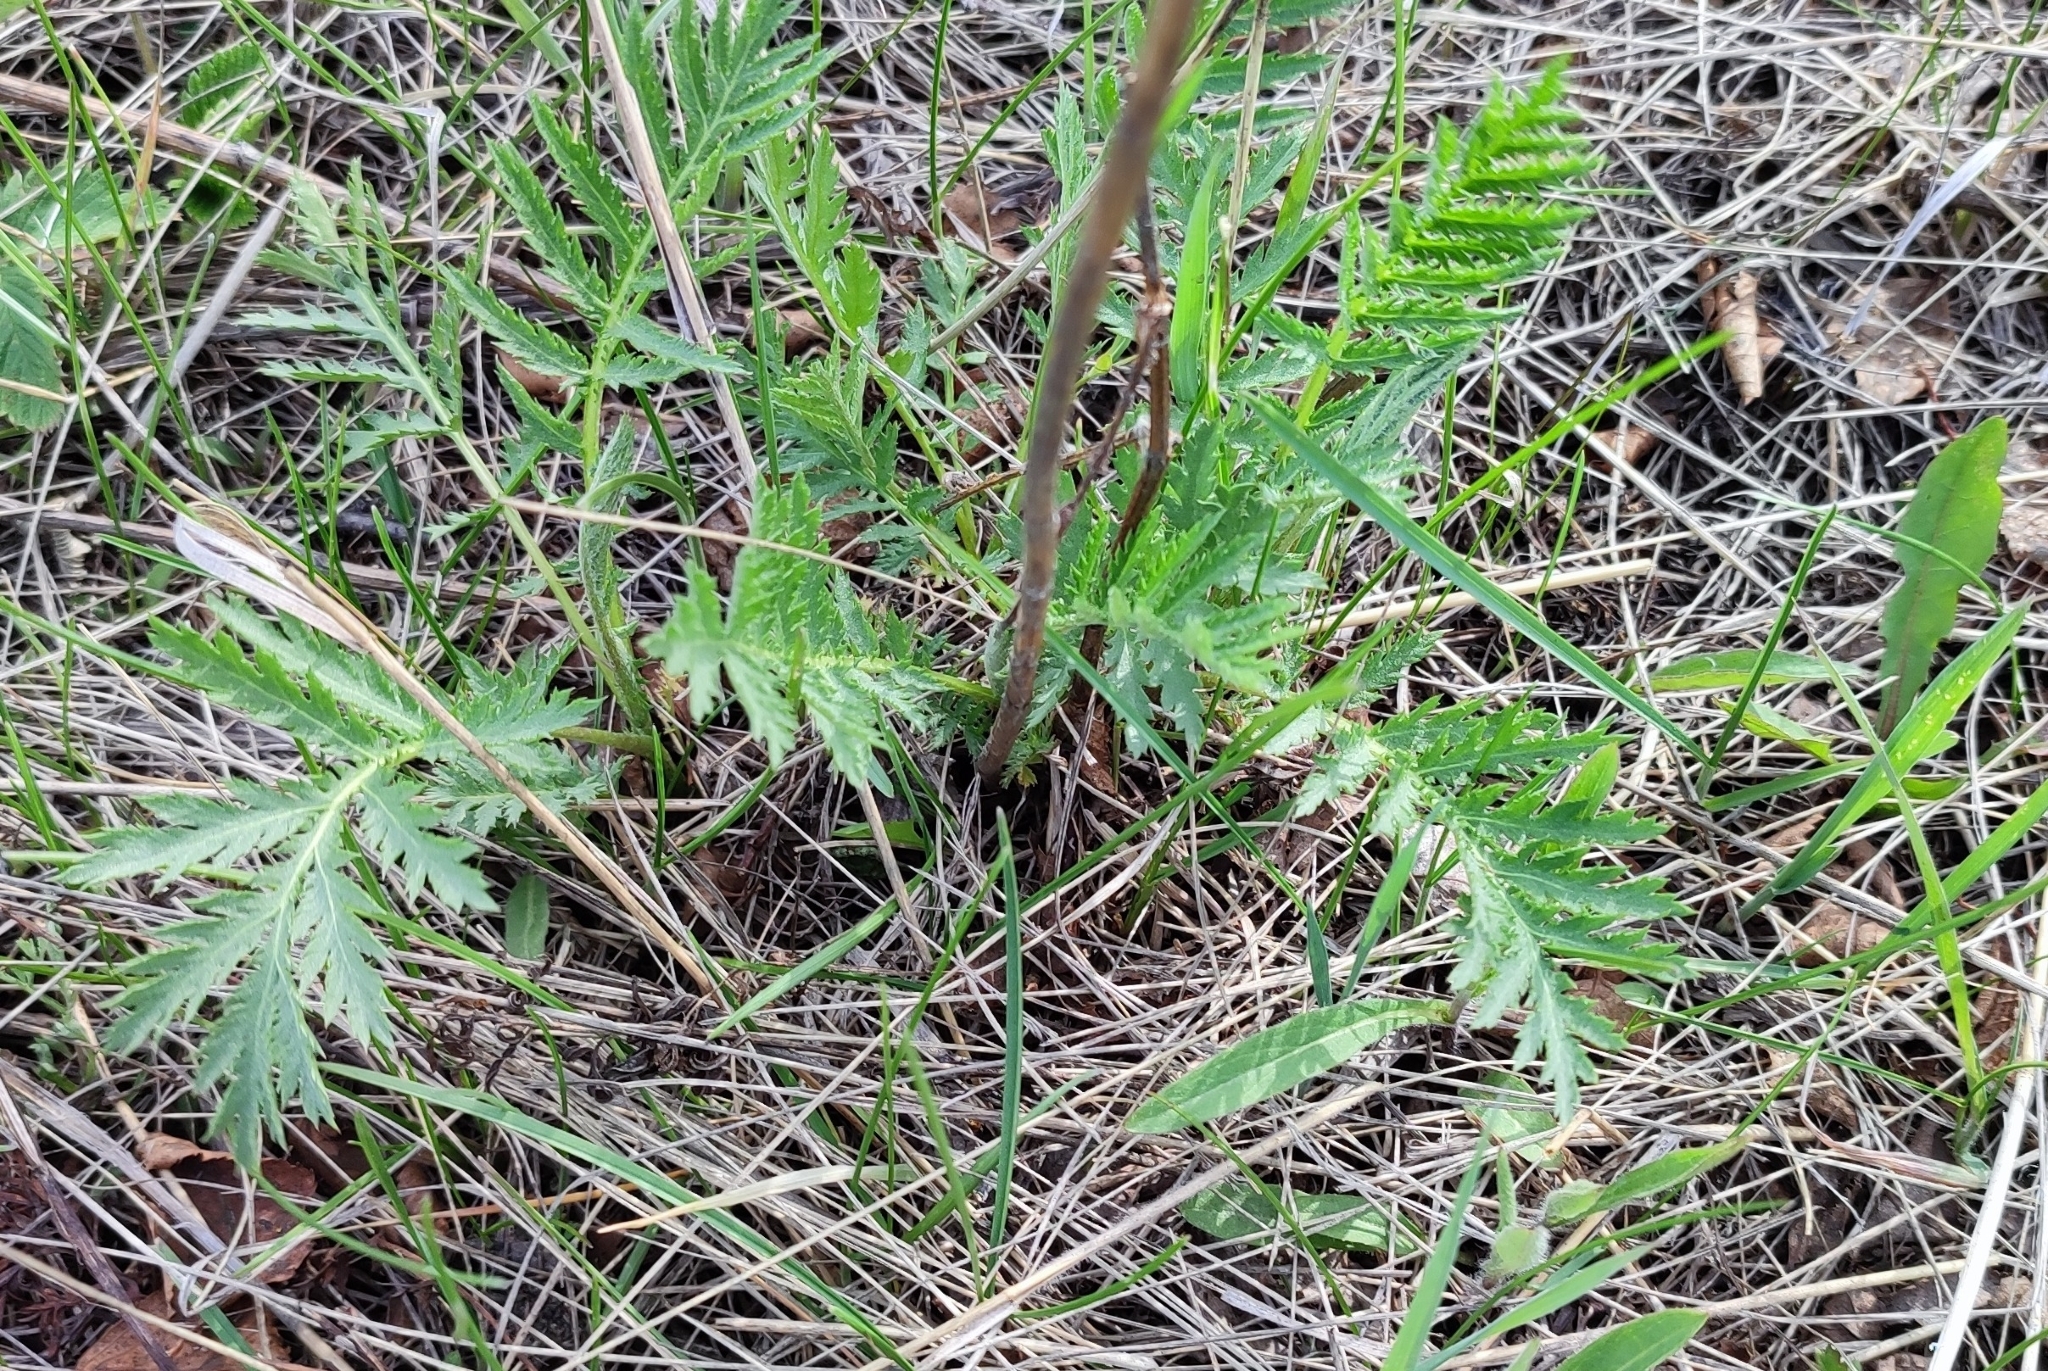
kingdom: Plantae
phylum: Tracheophyta
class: Magnoliopsida
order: Asterales
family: Asteraceae
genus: Tanacetum
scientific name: Tanacetum vulgare
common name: Common tansy
